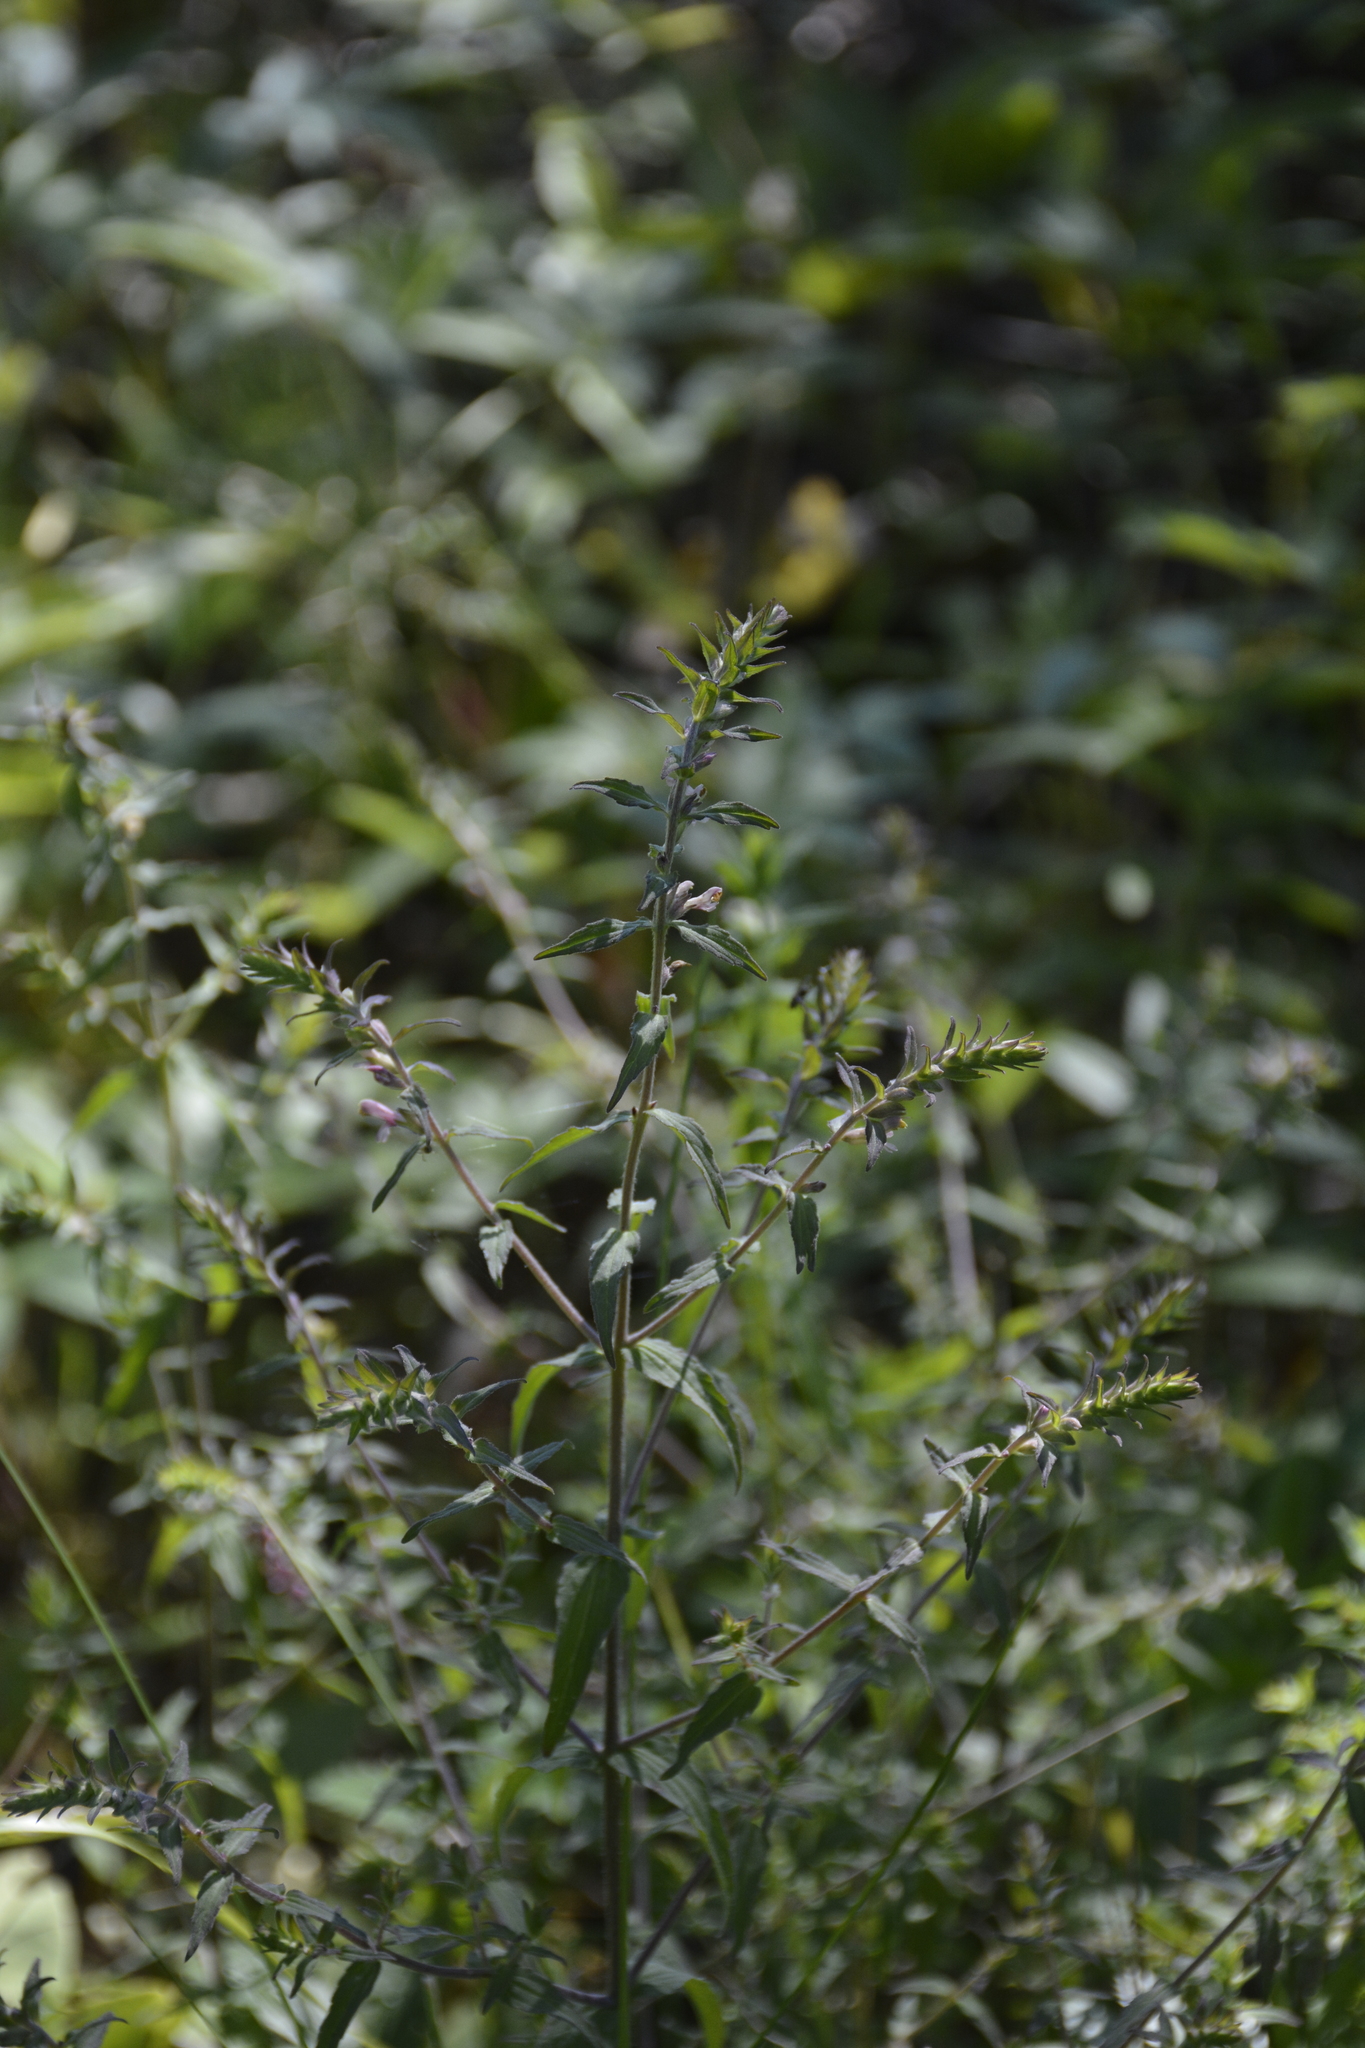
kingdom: Plantae
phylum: Tracheophyta
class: Magnoliopsida
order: Lamiales
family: Orobanchaceae
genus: Odontites
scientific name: Odontites vulgaris
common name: Broomrape
